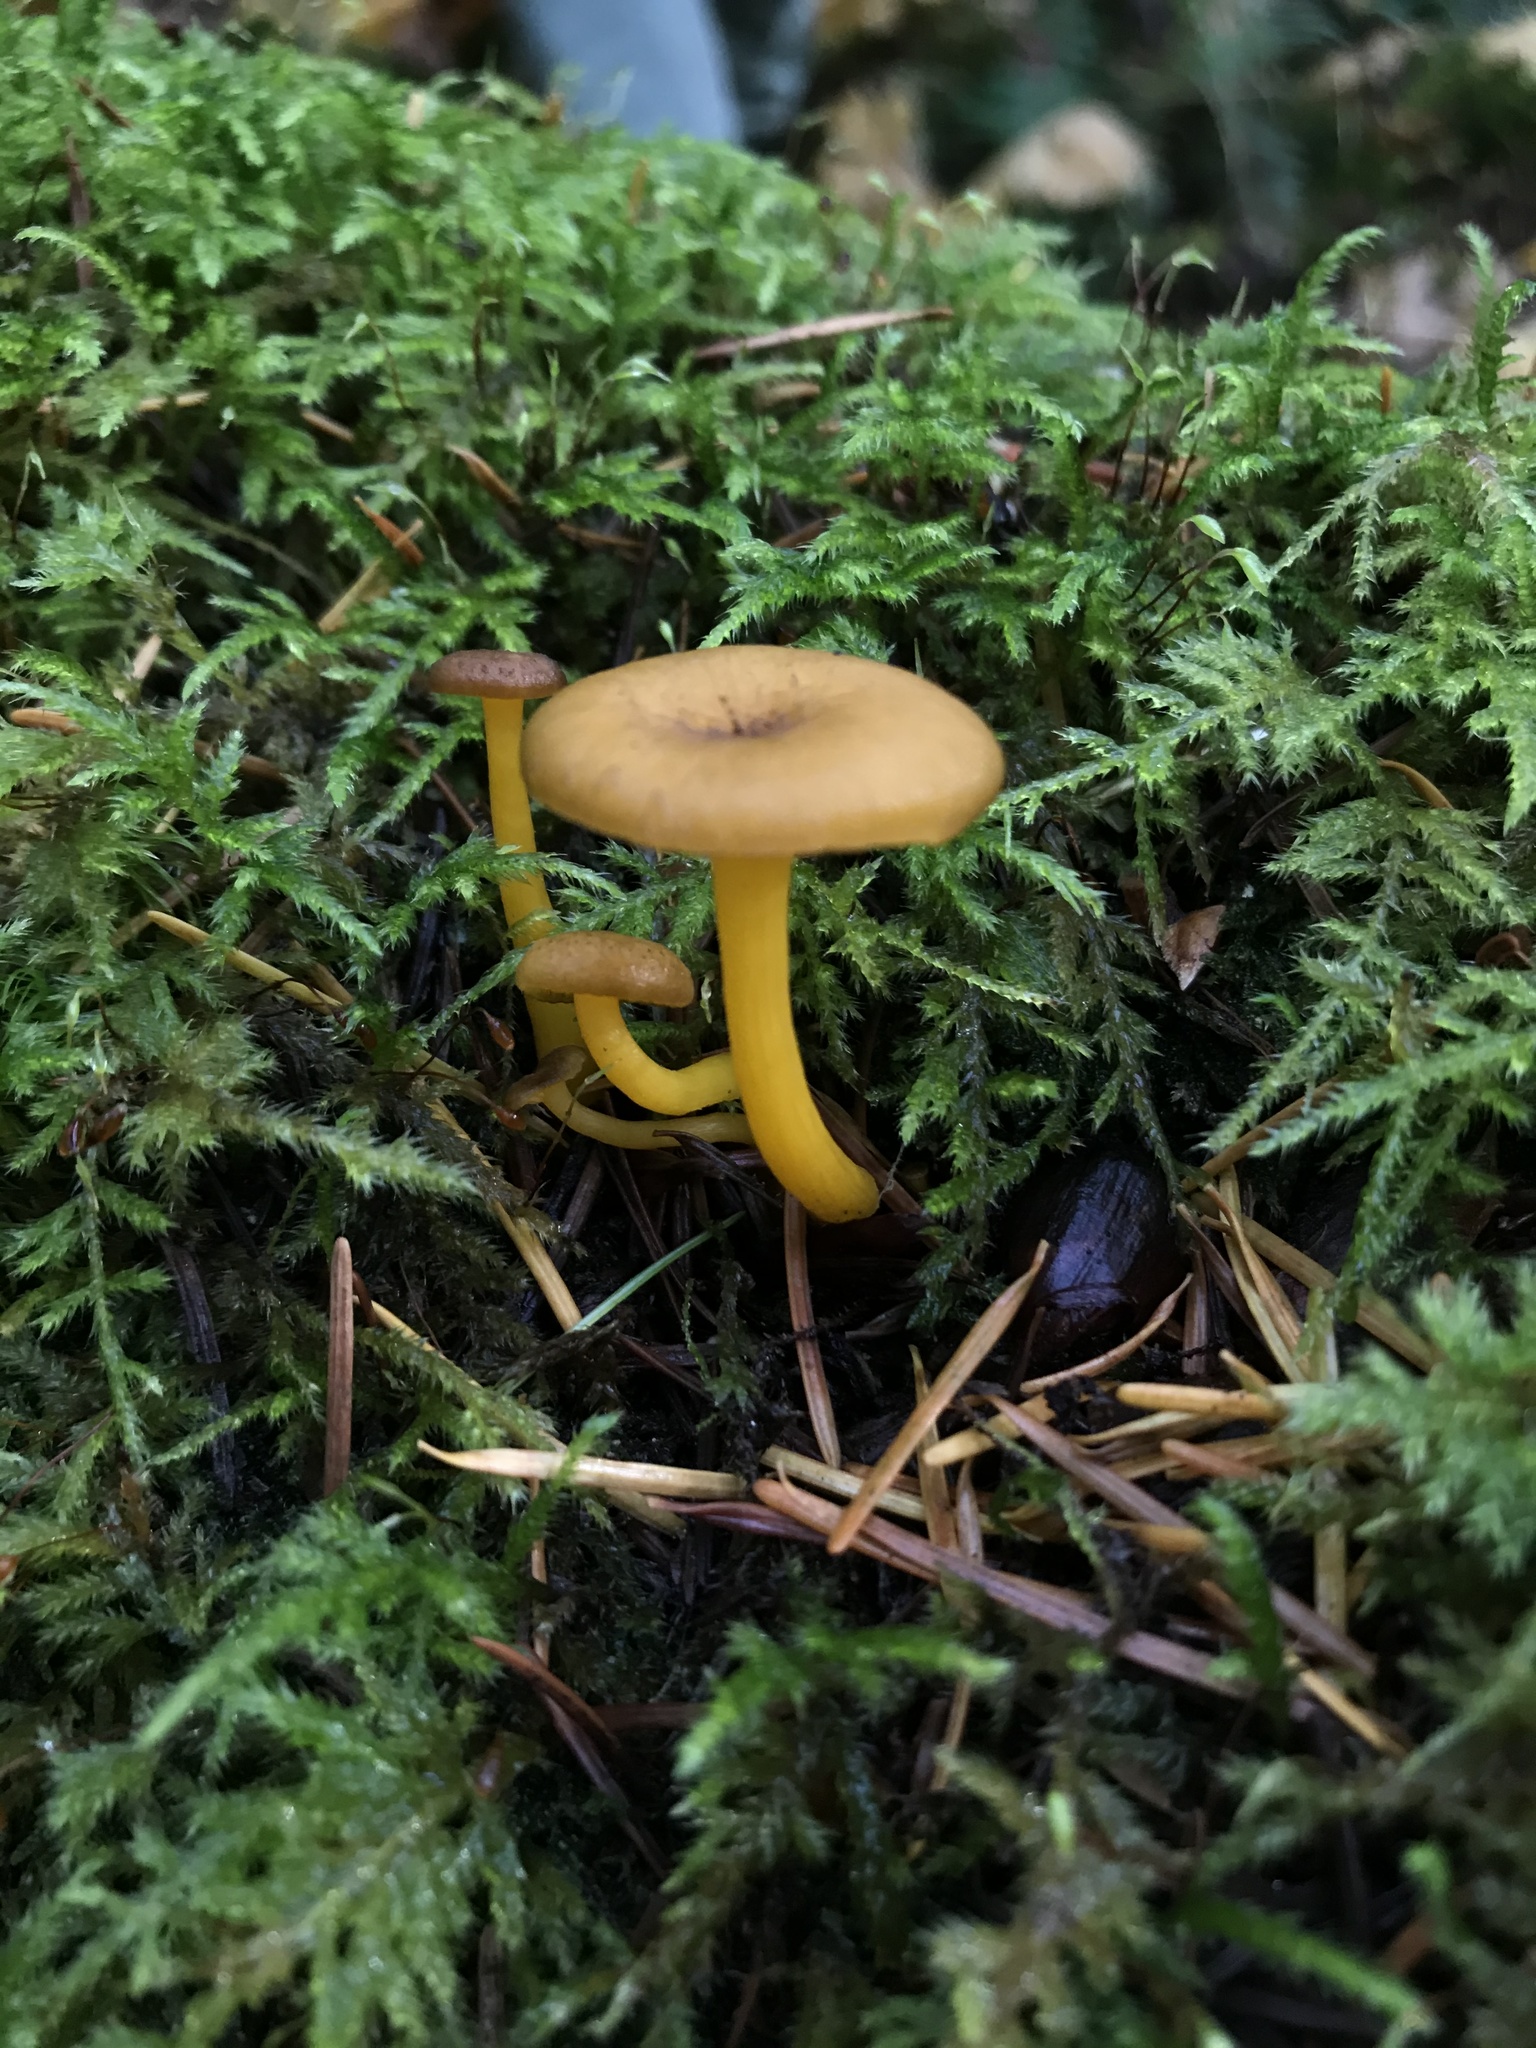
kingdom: Fungi
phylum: Basidiomycota
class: Agaricomycetes
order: Agaricales
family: Hygrophoraceae
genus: Chrysomphalina
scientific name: Chrysomphalina chrysophylla
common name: Golden navel
